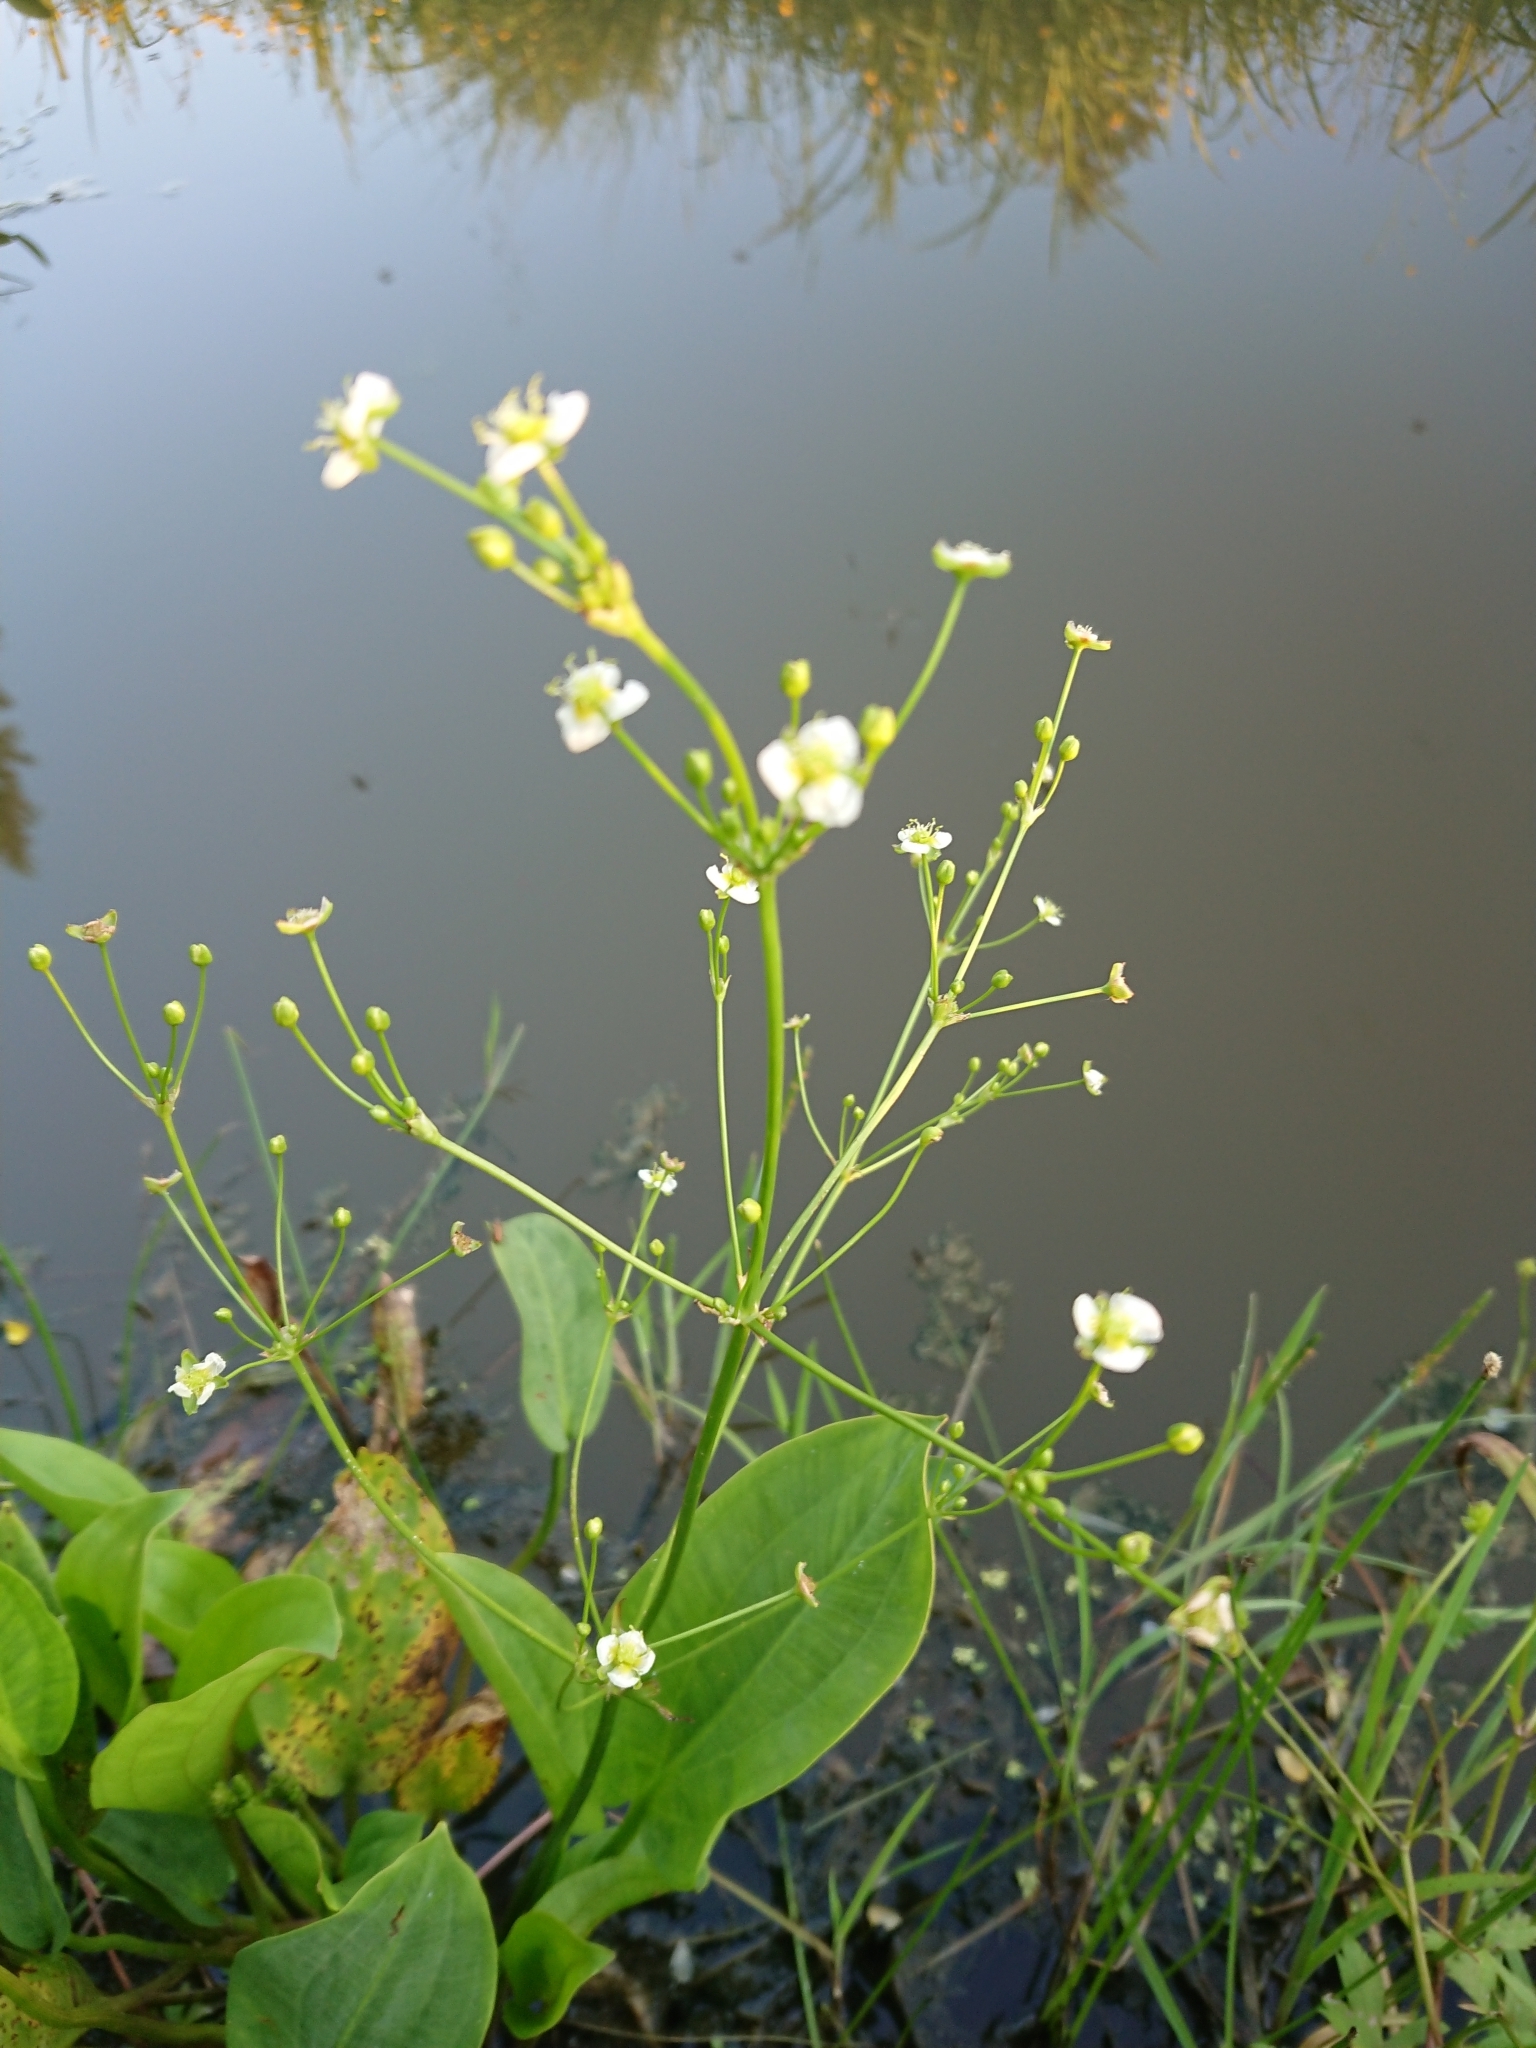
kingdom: Plantae
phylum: Tracheophyta
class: Liliopsida
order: Alismatales
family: Alismataceae
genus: Alisma
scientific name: Alisma plantago-aquatica
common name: Water-plantain
